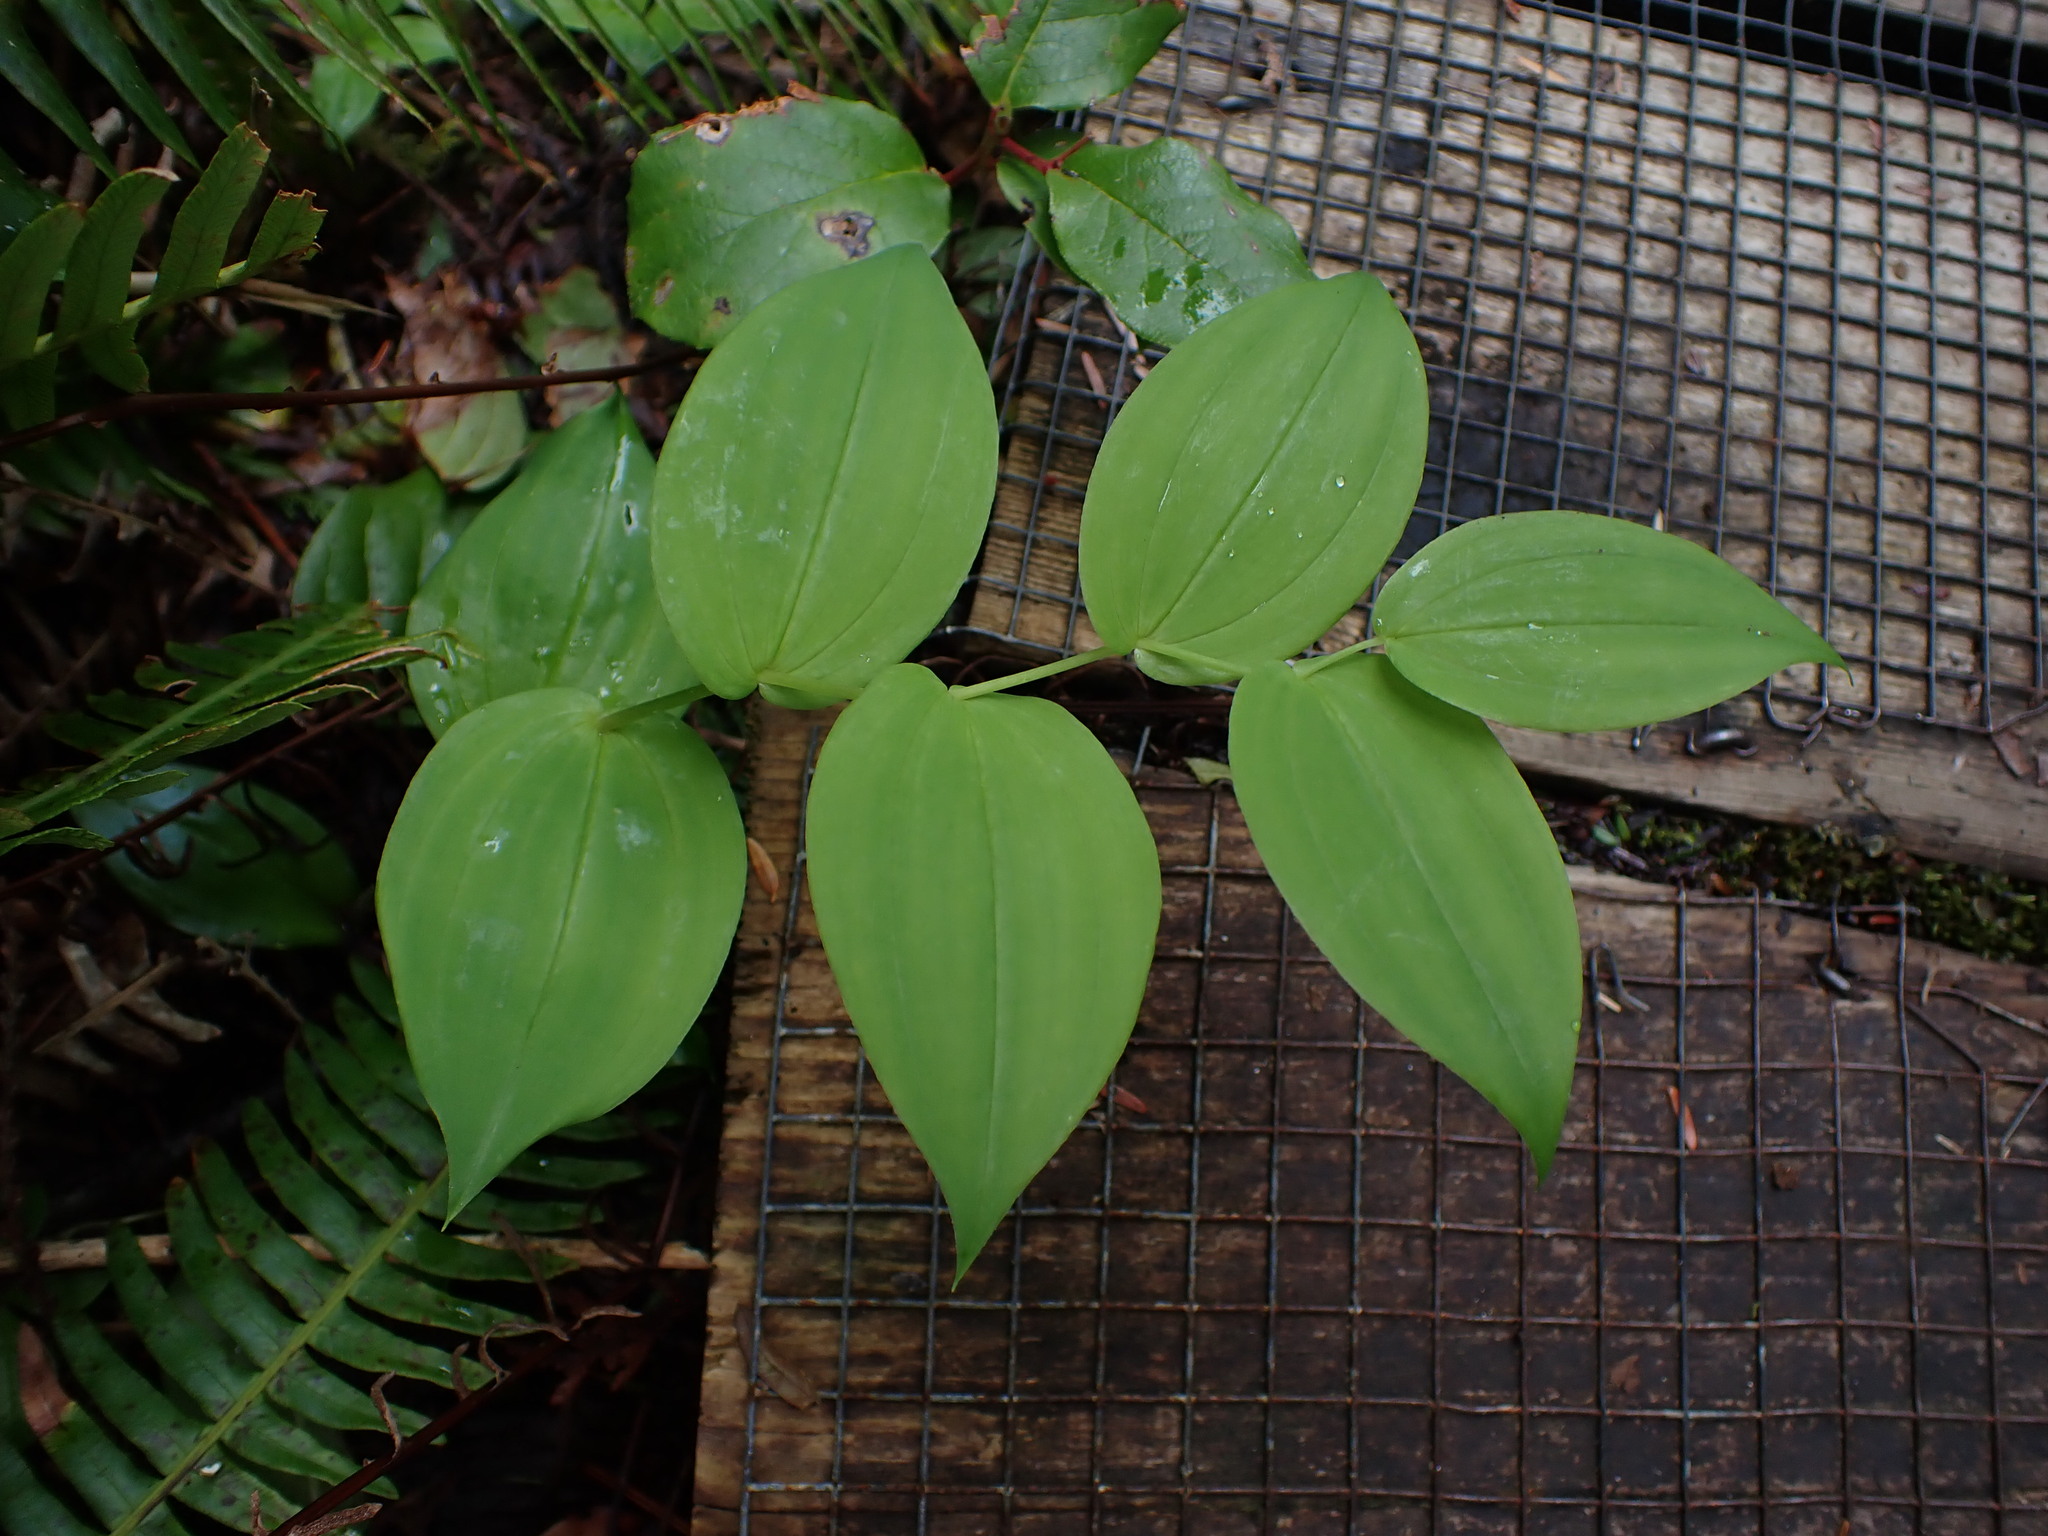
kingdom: Plantae
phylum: Tracheophyta
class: Liliopsida
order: Liliales
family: Liliaceae
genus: Streptopus
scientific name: Streptopus amplexifolius
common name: Clasp twisted stalk
